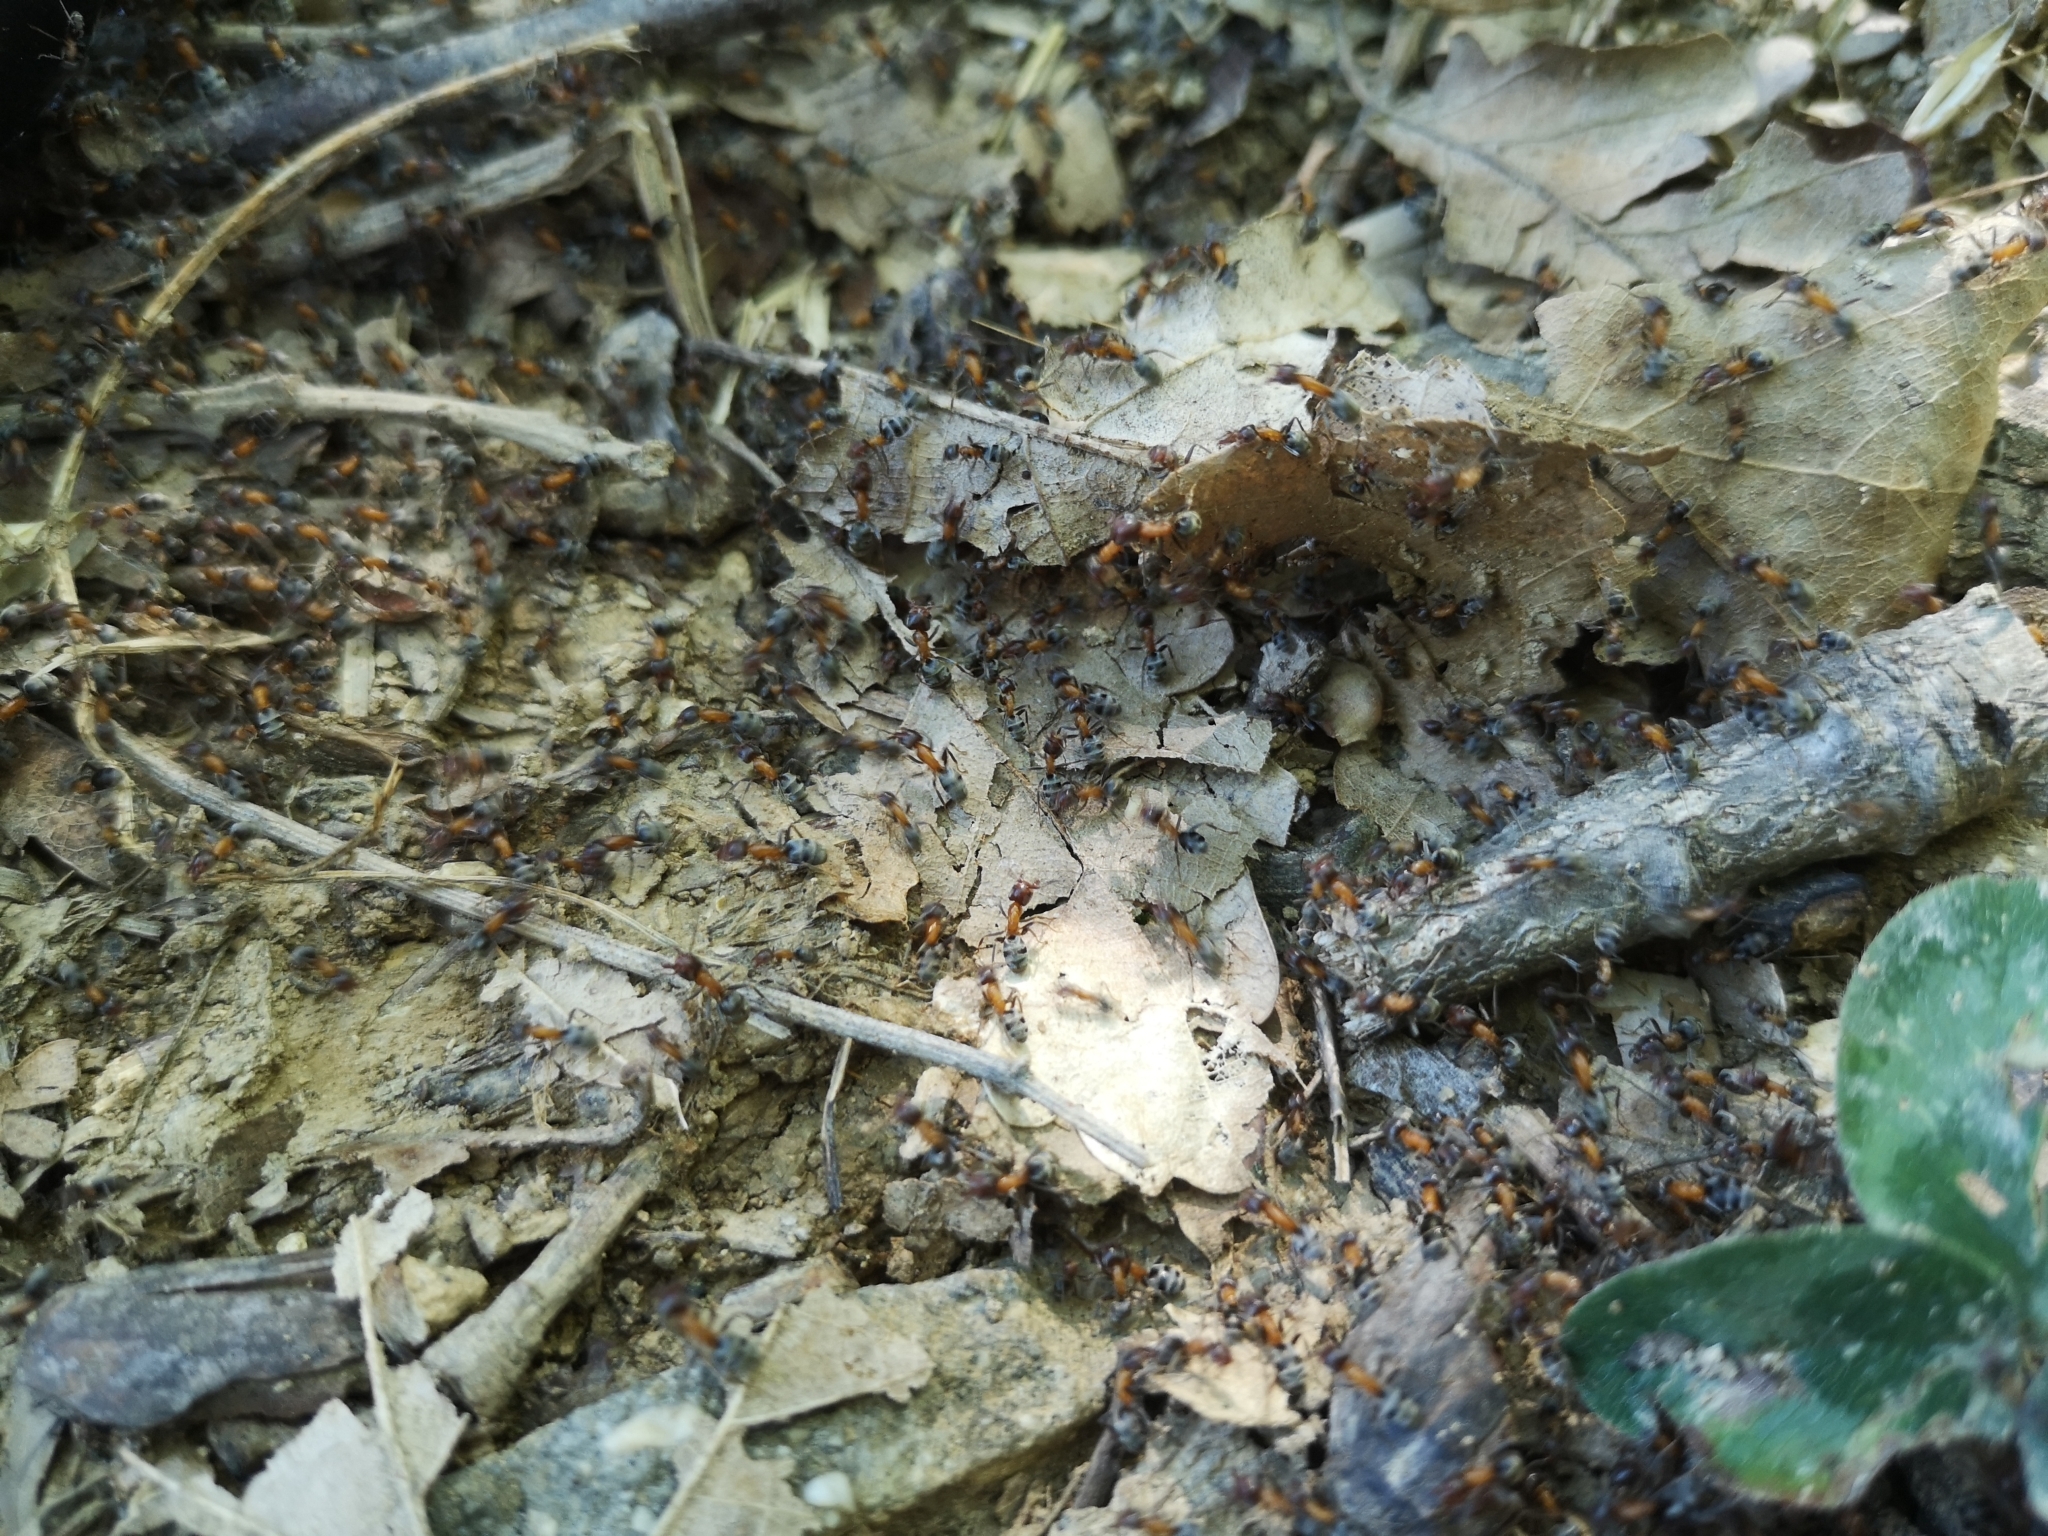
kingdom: Animalia
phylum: Arthropoda
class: Insecta
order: Hymenoptera
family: Formicidae
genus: Liometopum
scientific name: Liometopum microcephalum
